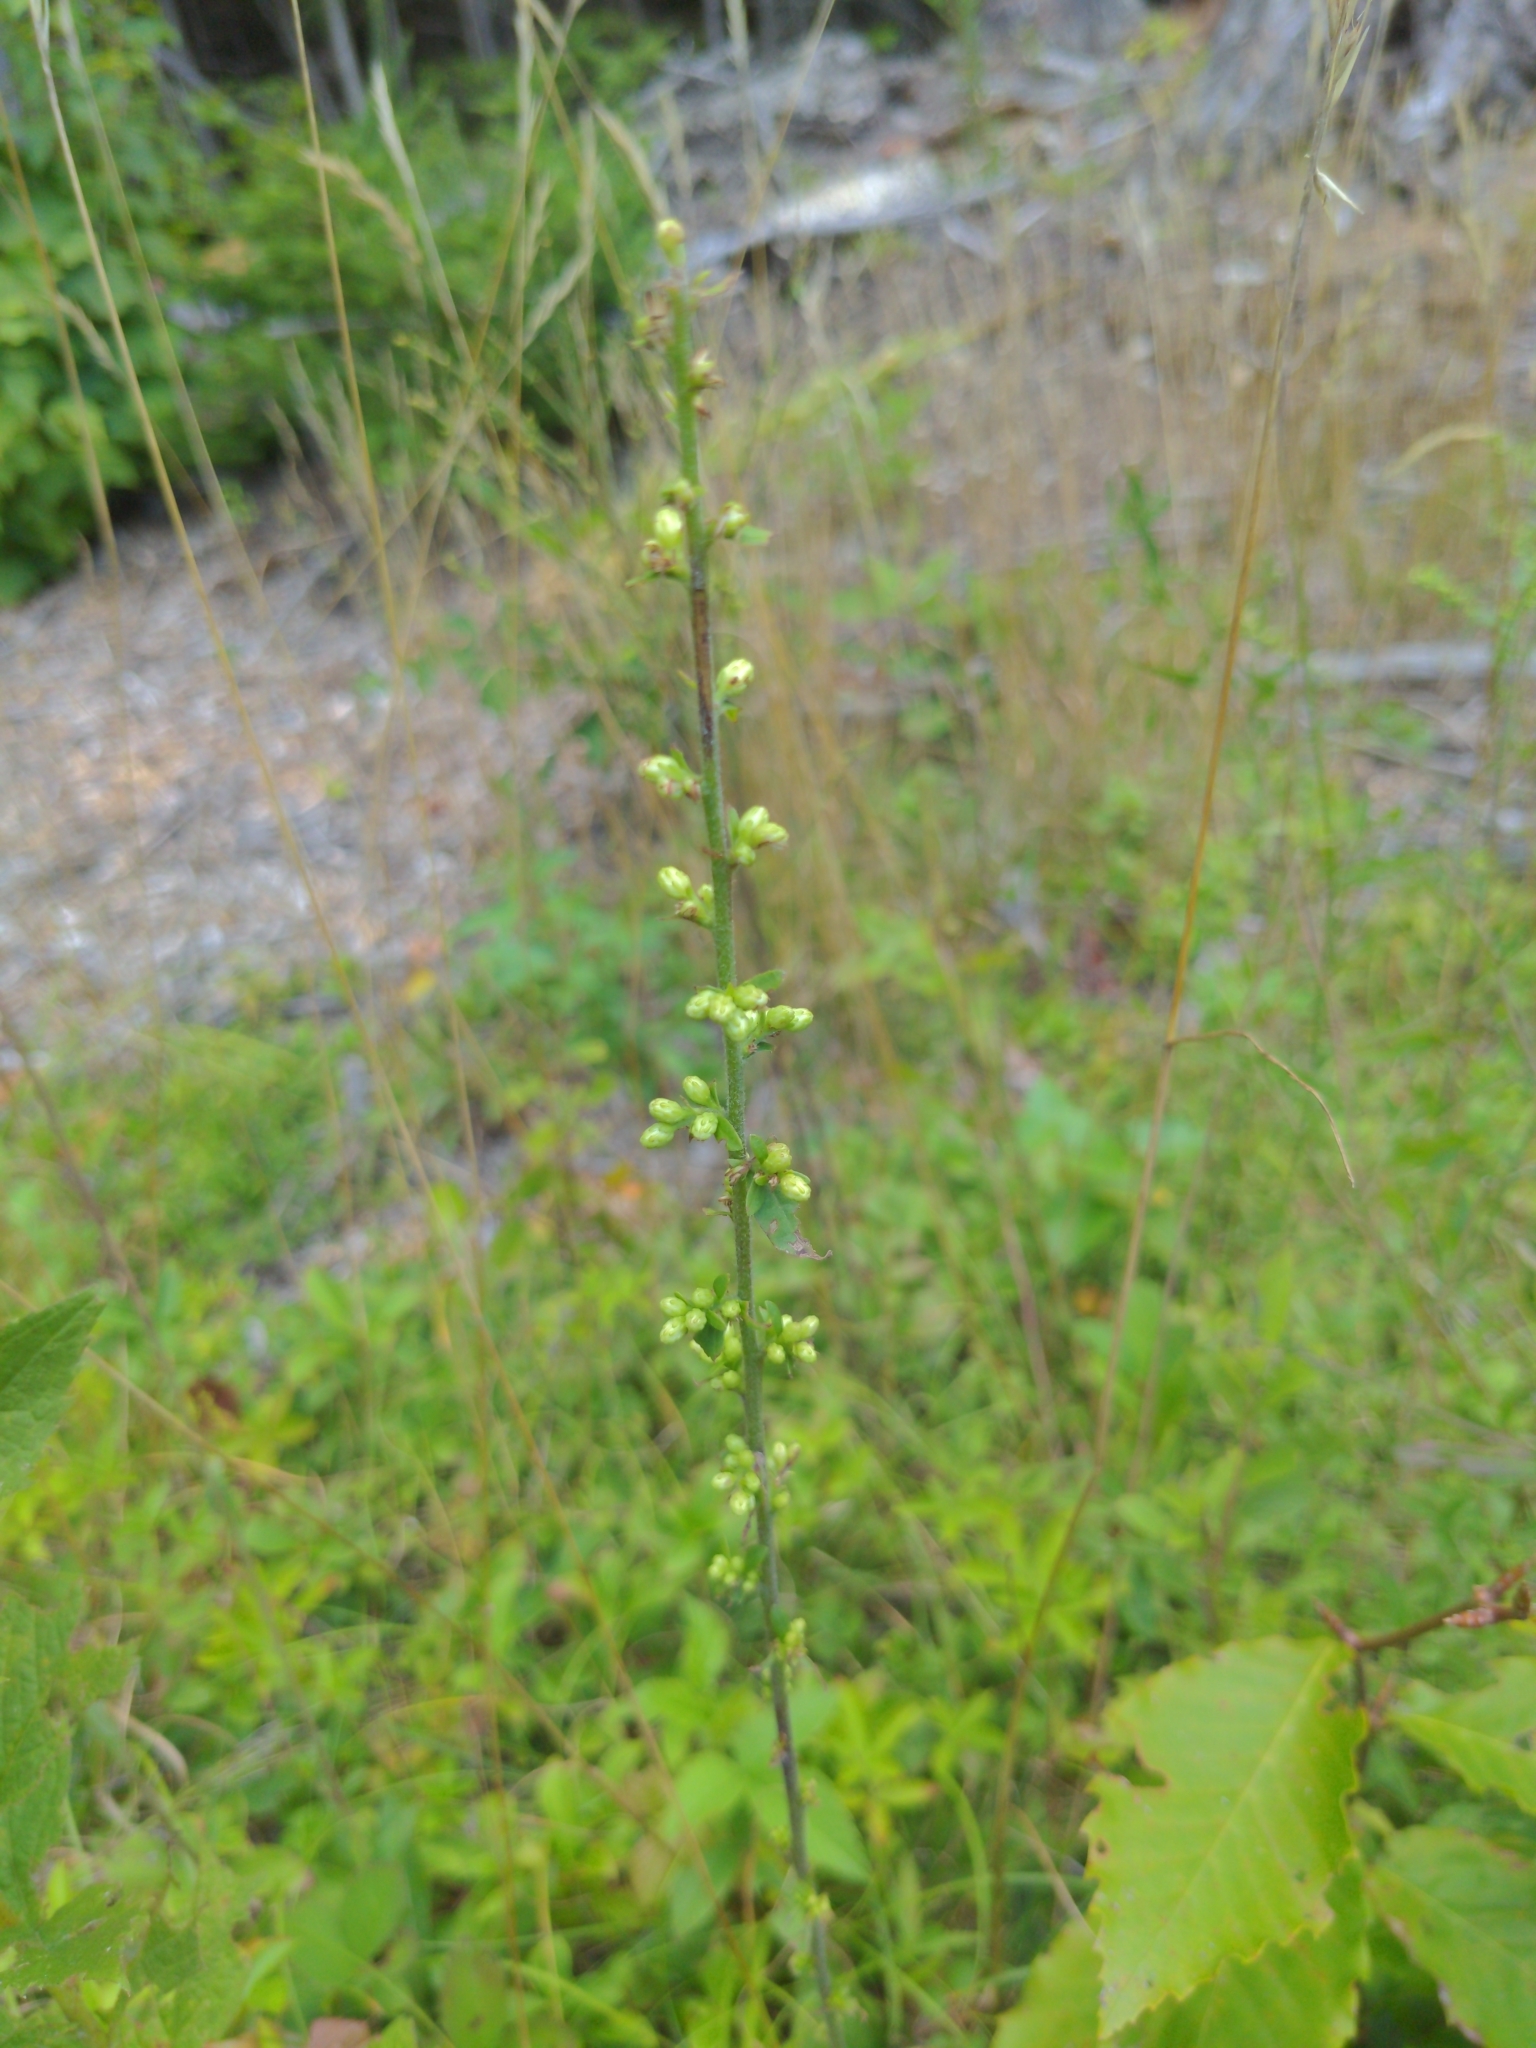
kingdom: Plantae
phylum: Tracheophyta
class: Magnoliopsida
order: Asterales
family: Asteraceae
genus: Solidago
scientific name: Solidago bicolor
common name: Silverrod
